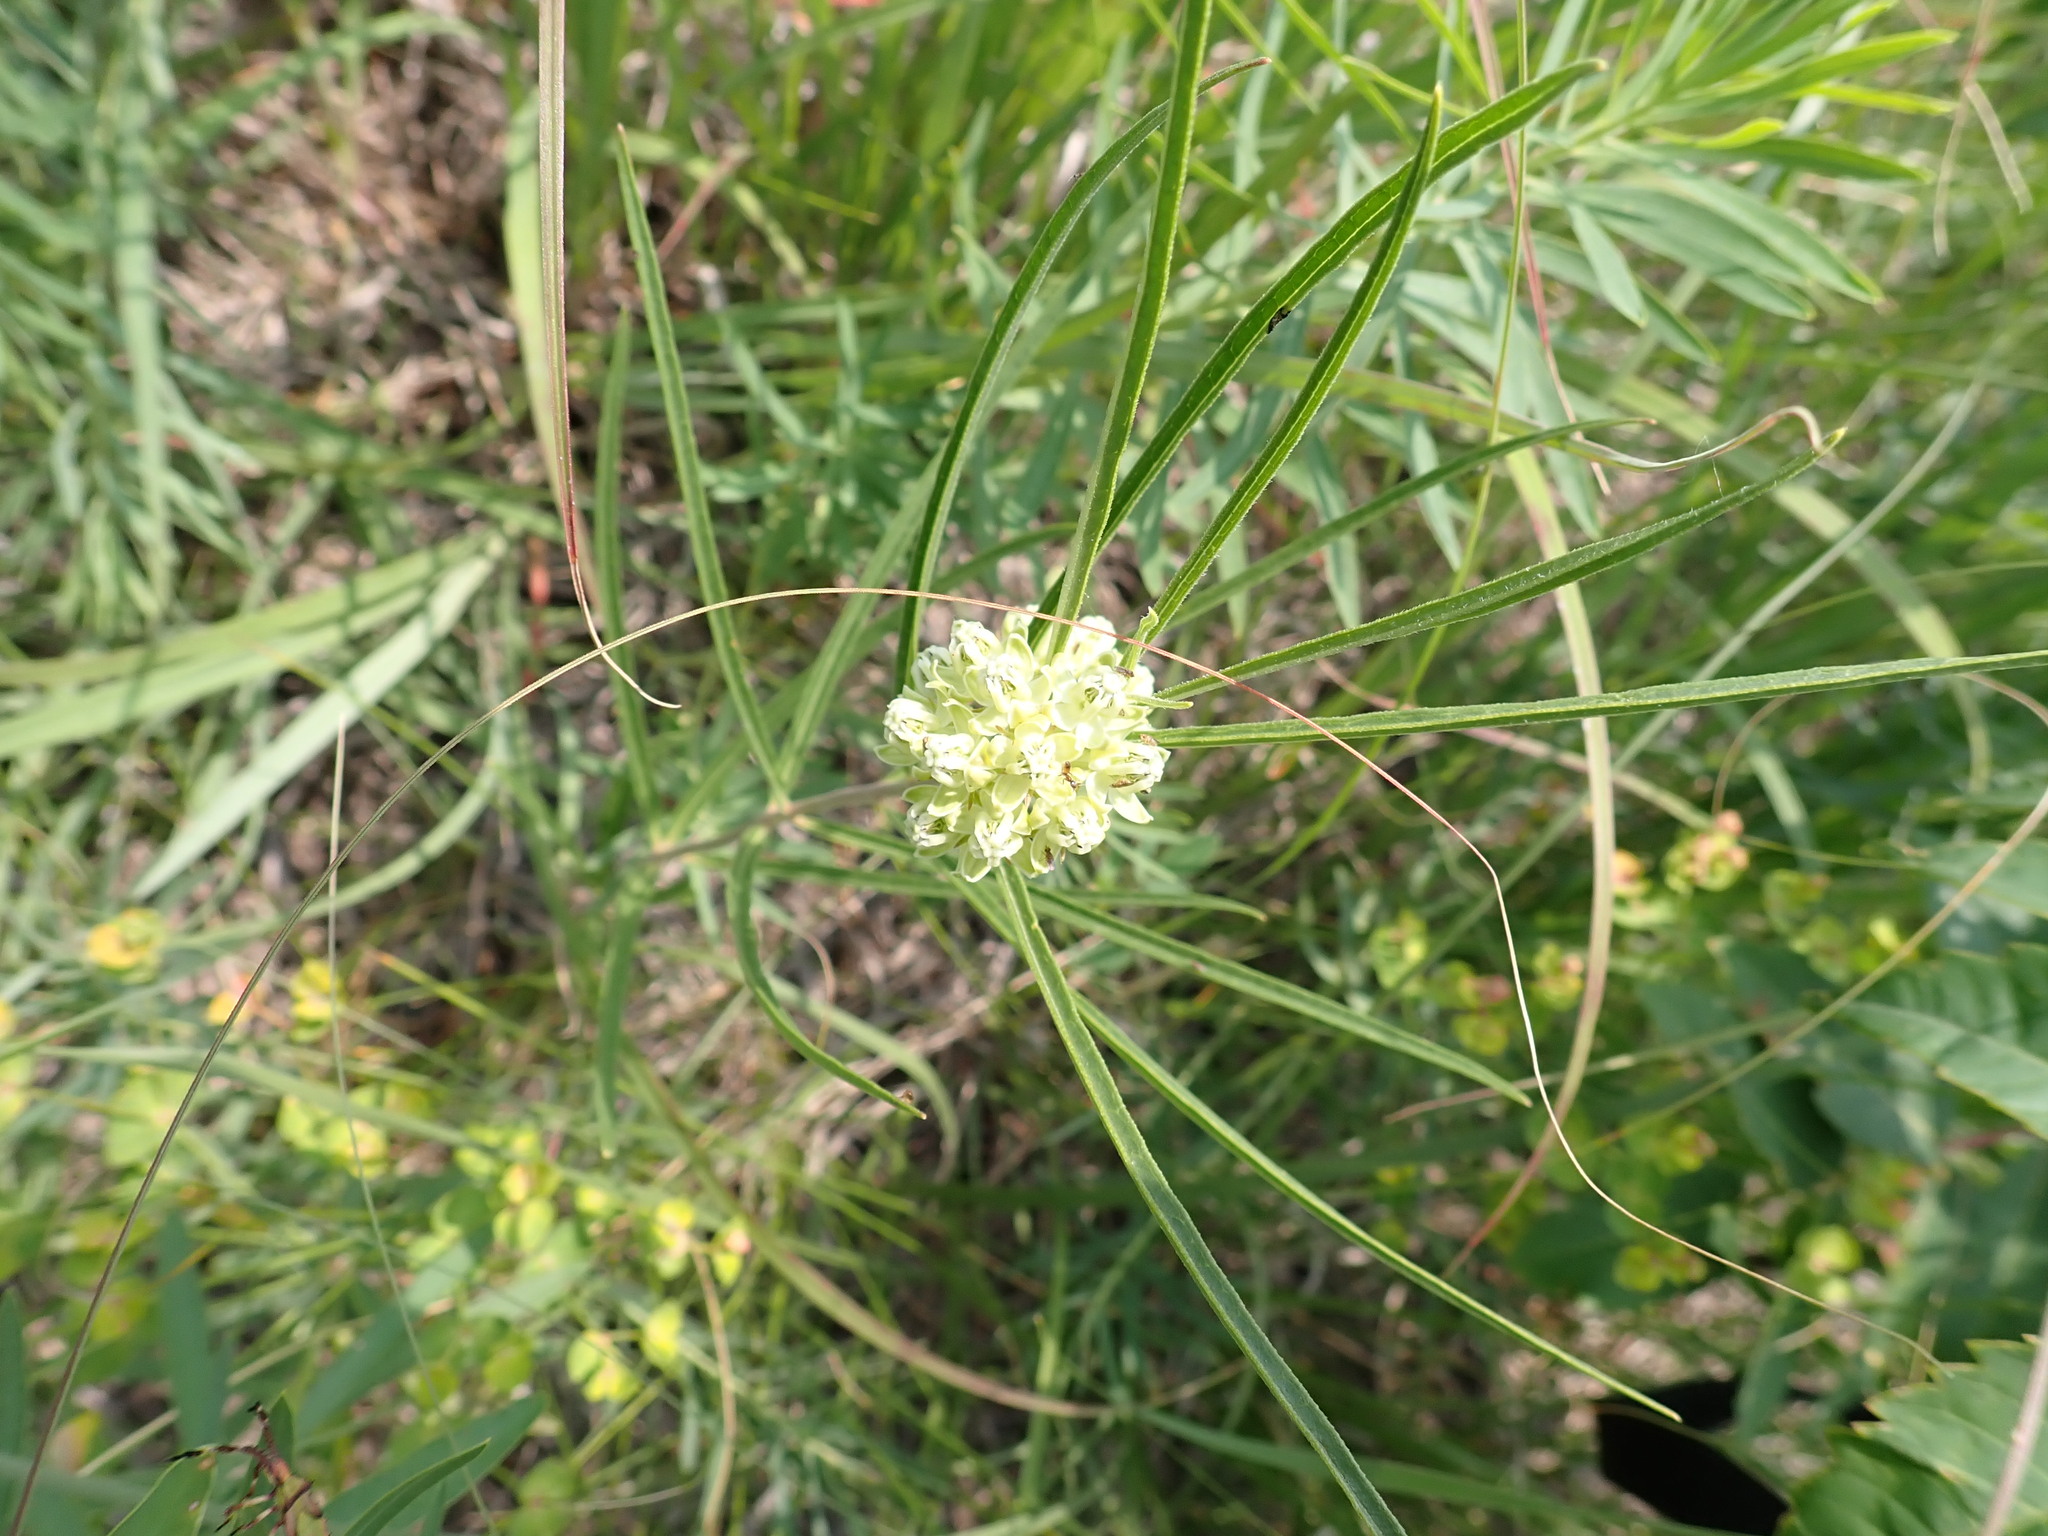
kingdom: Plantae
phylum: Tracheophyta
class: Magnoliopsida
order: Gentianales
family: Apocynaceae
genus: Asclepias
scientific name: Asclepias stenophylla
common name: Narrow-leaf milkweed
